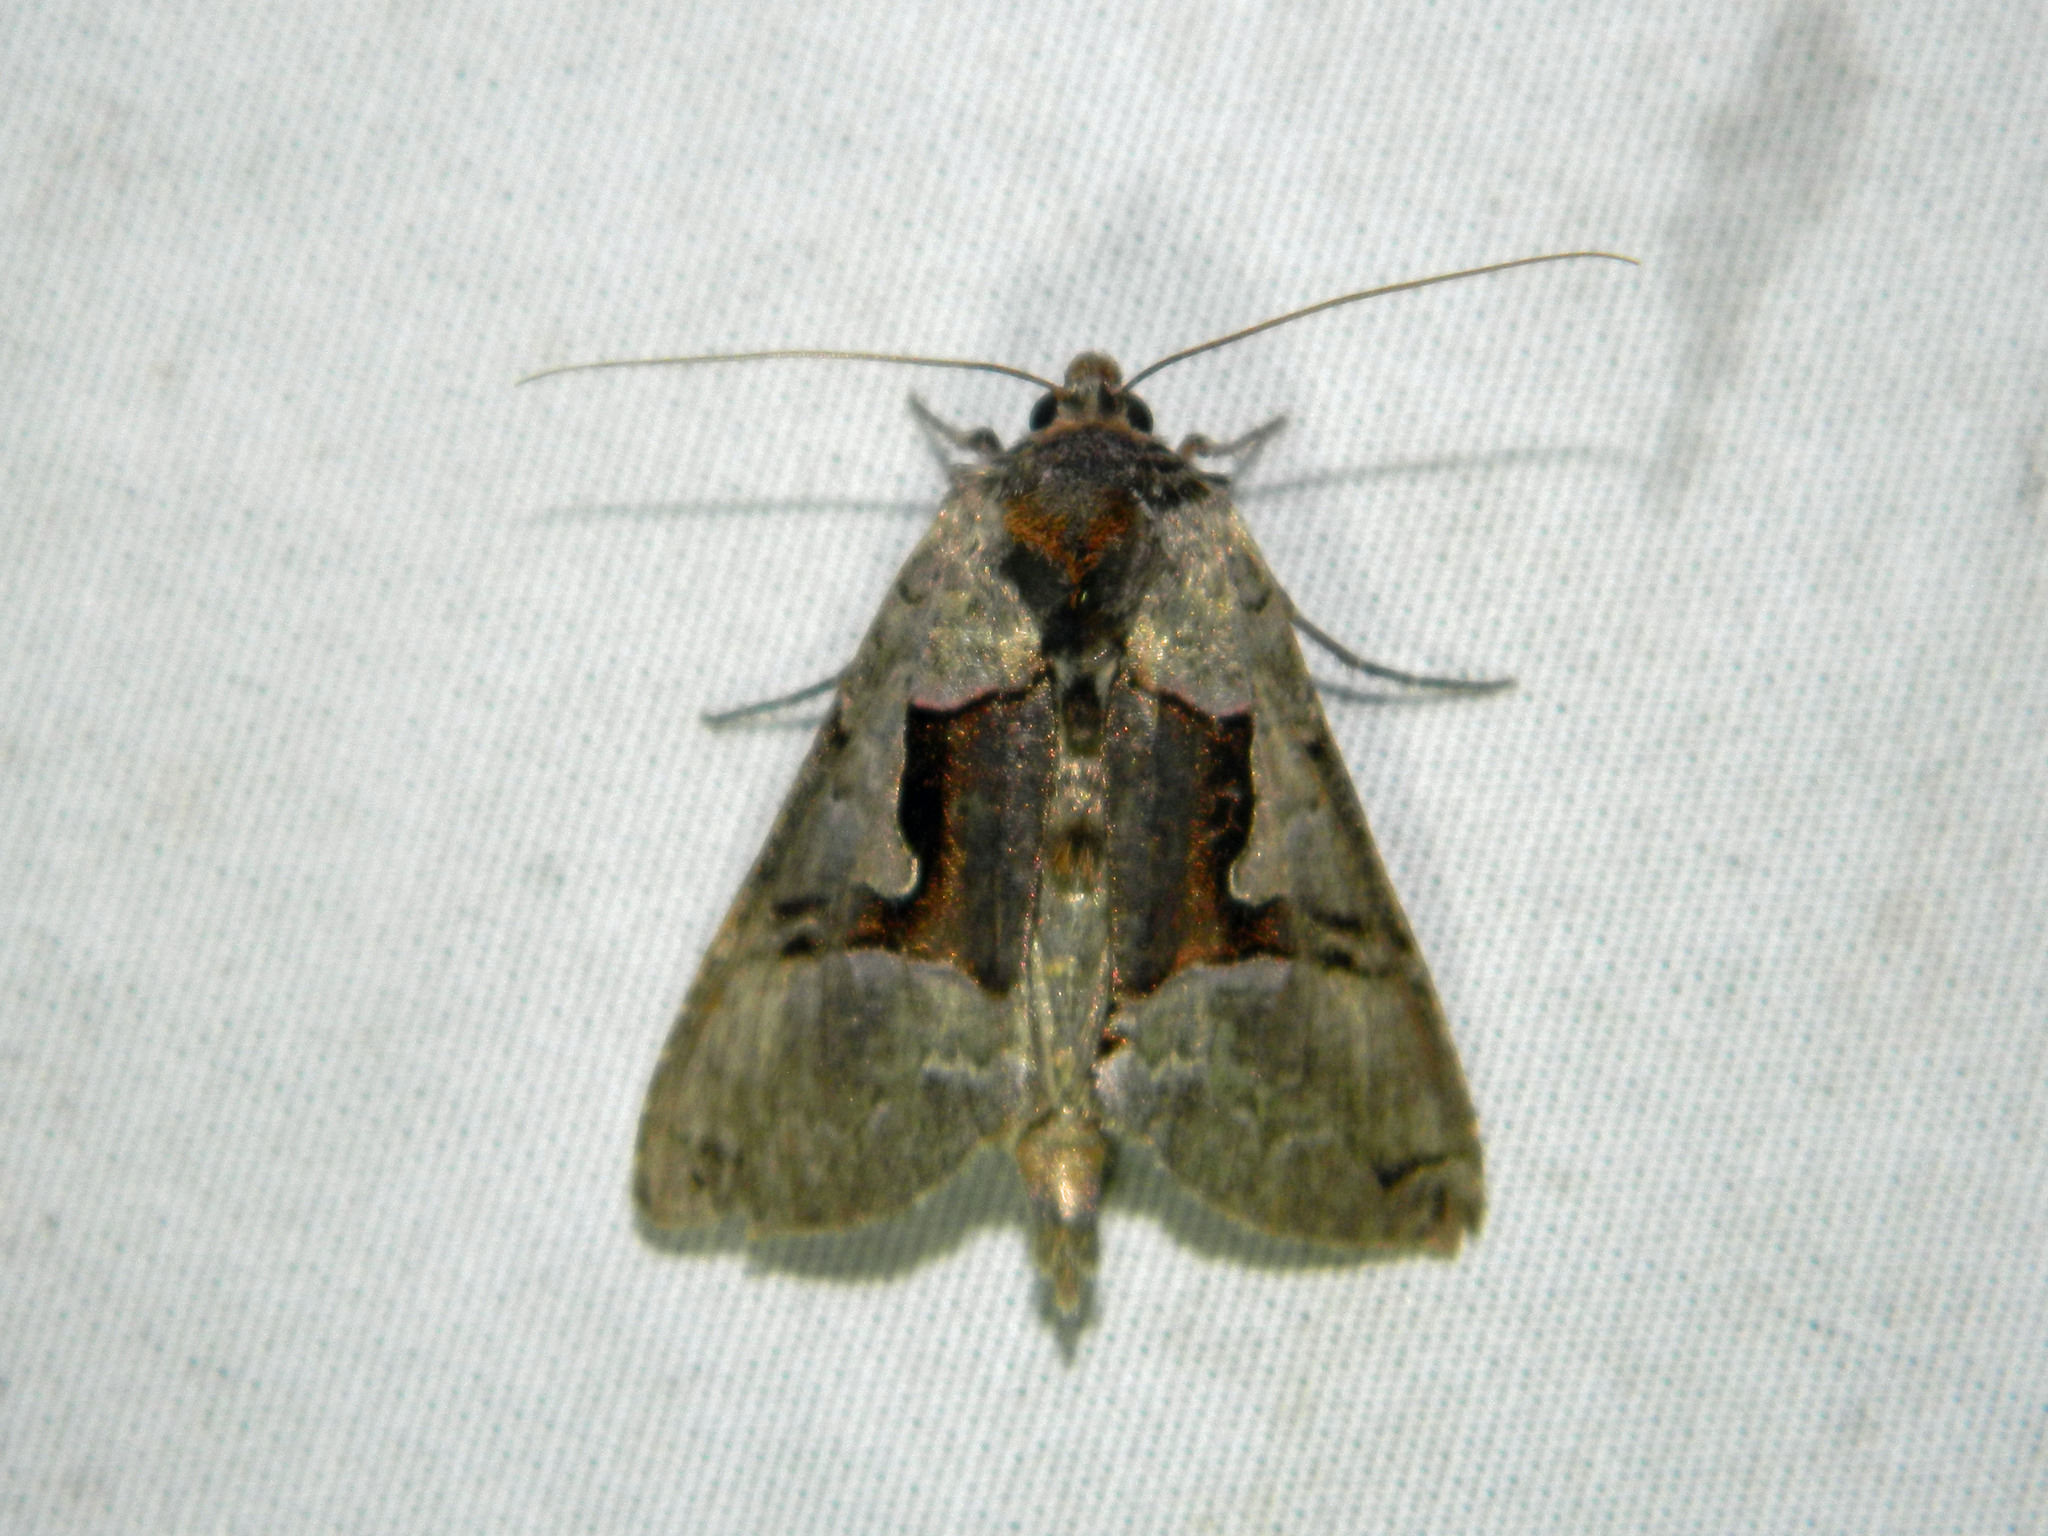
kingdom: Animalia
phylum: Arthropoda
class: Insecta
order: Lepidoptera
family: Noctuidae
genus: Autographa
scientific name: Autographa ampla
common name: Large looper moth
